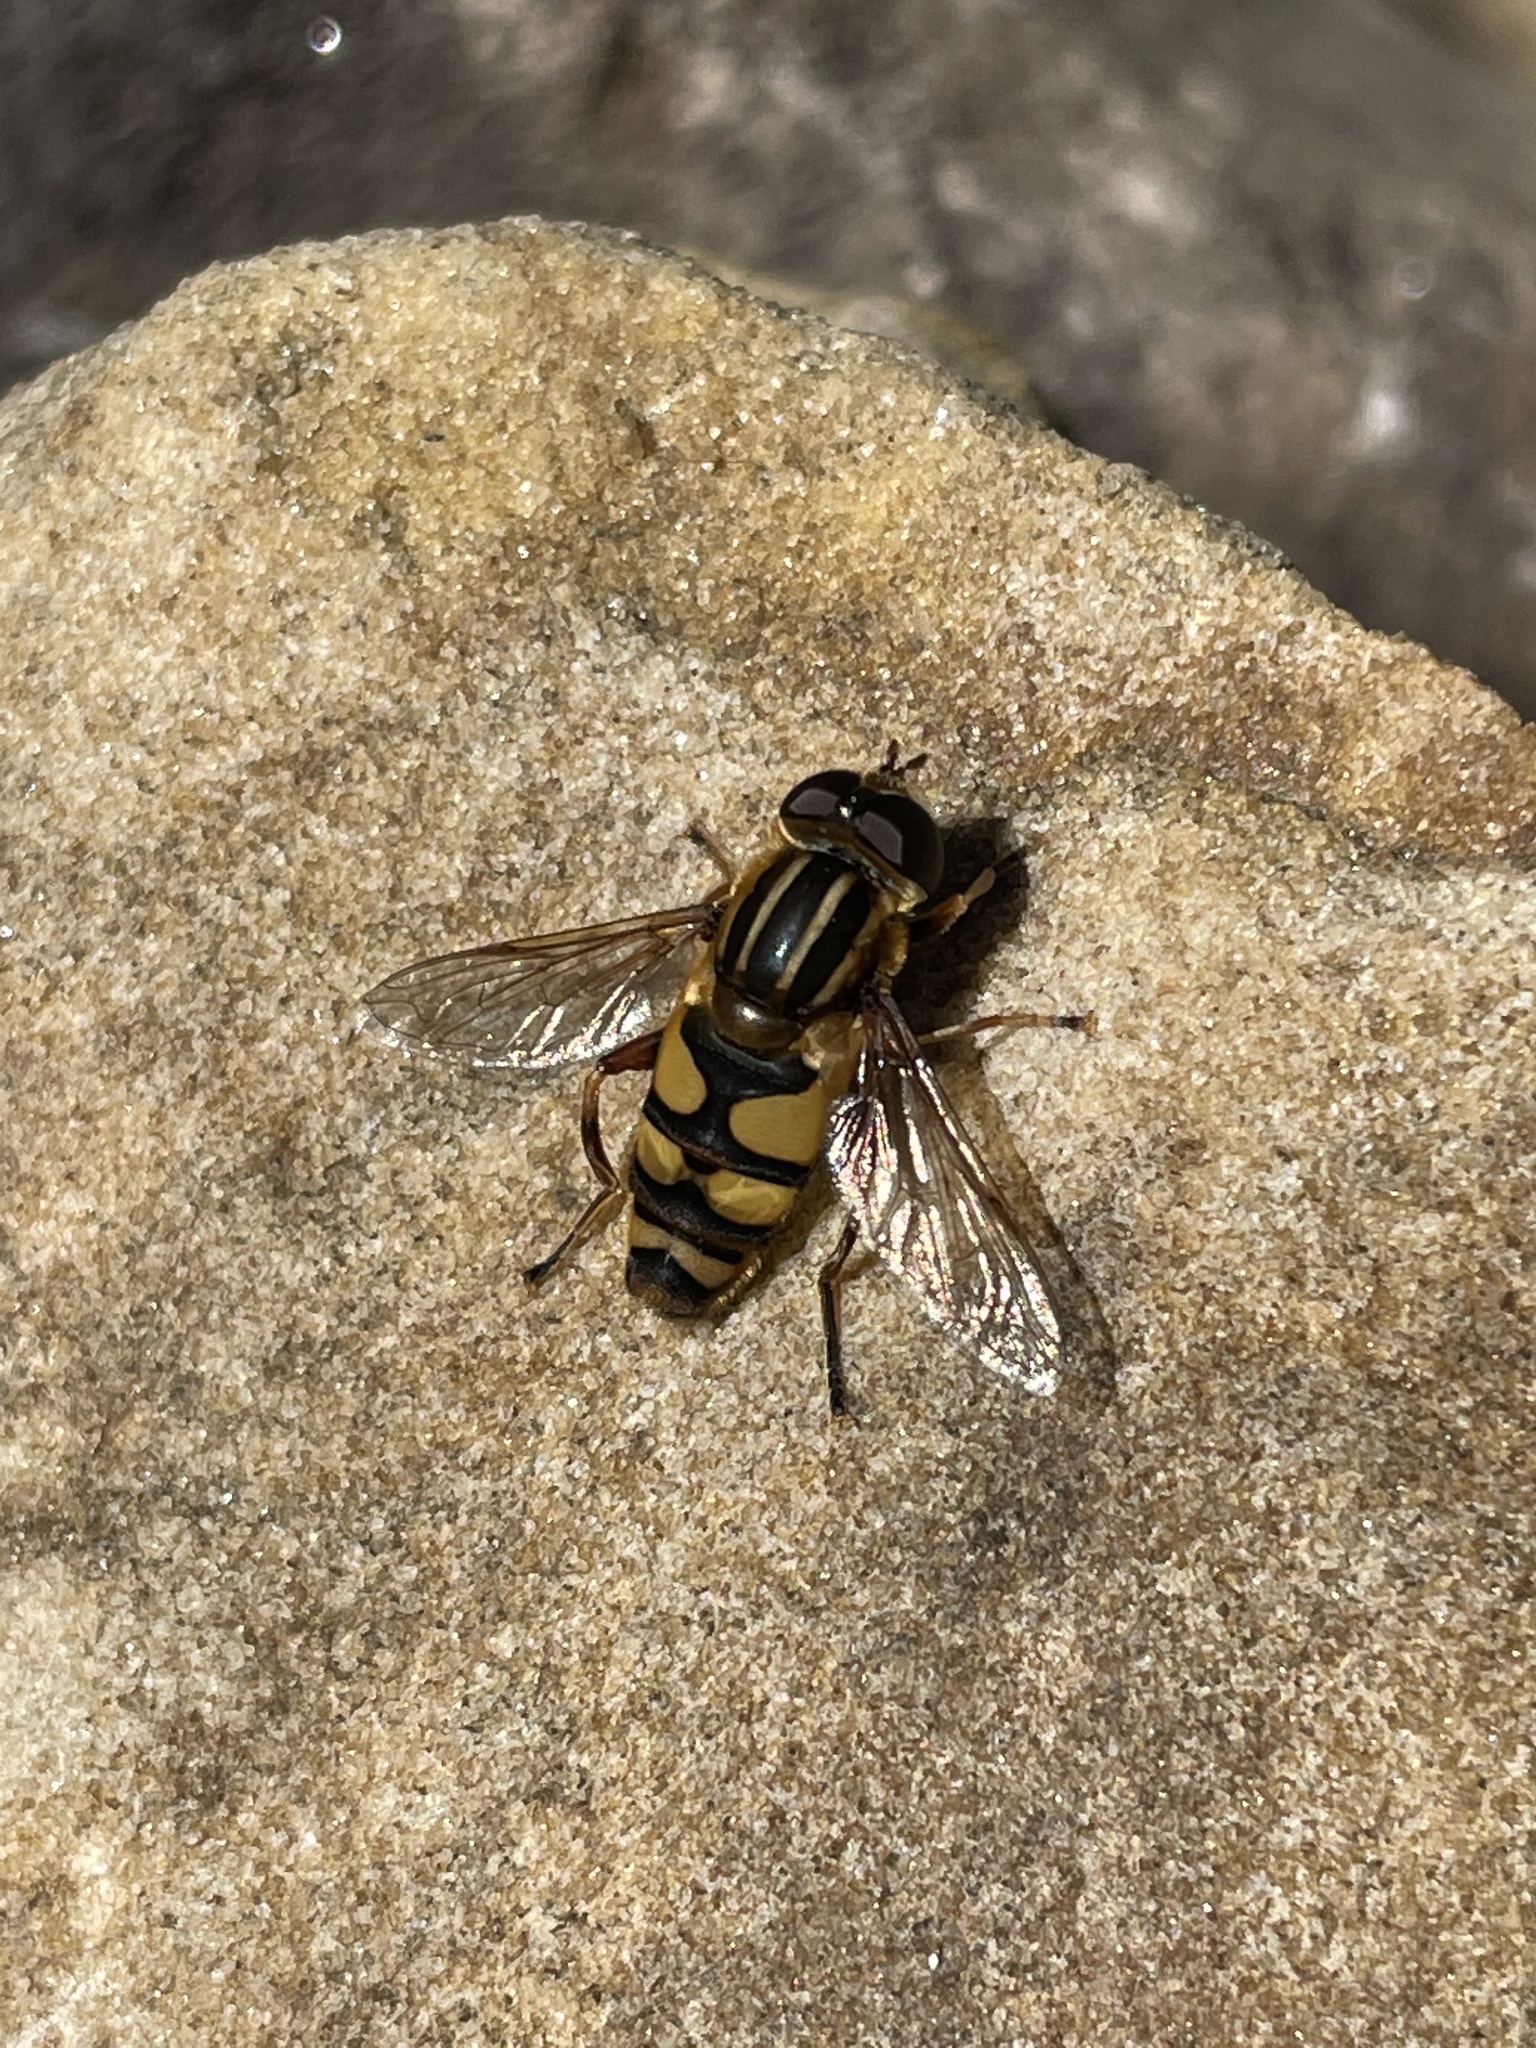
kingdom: Animalia
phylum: Arthropoda
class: Insecta
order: Diptera
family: Syrphidae
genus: Helophilus
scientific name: Helophilus fasciatus
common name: Narrow-headed marsh fly
